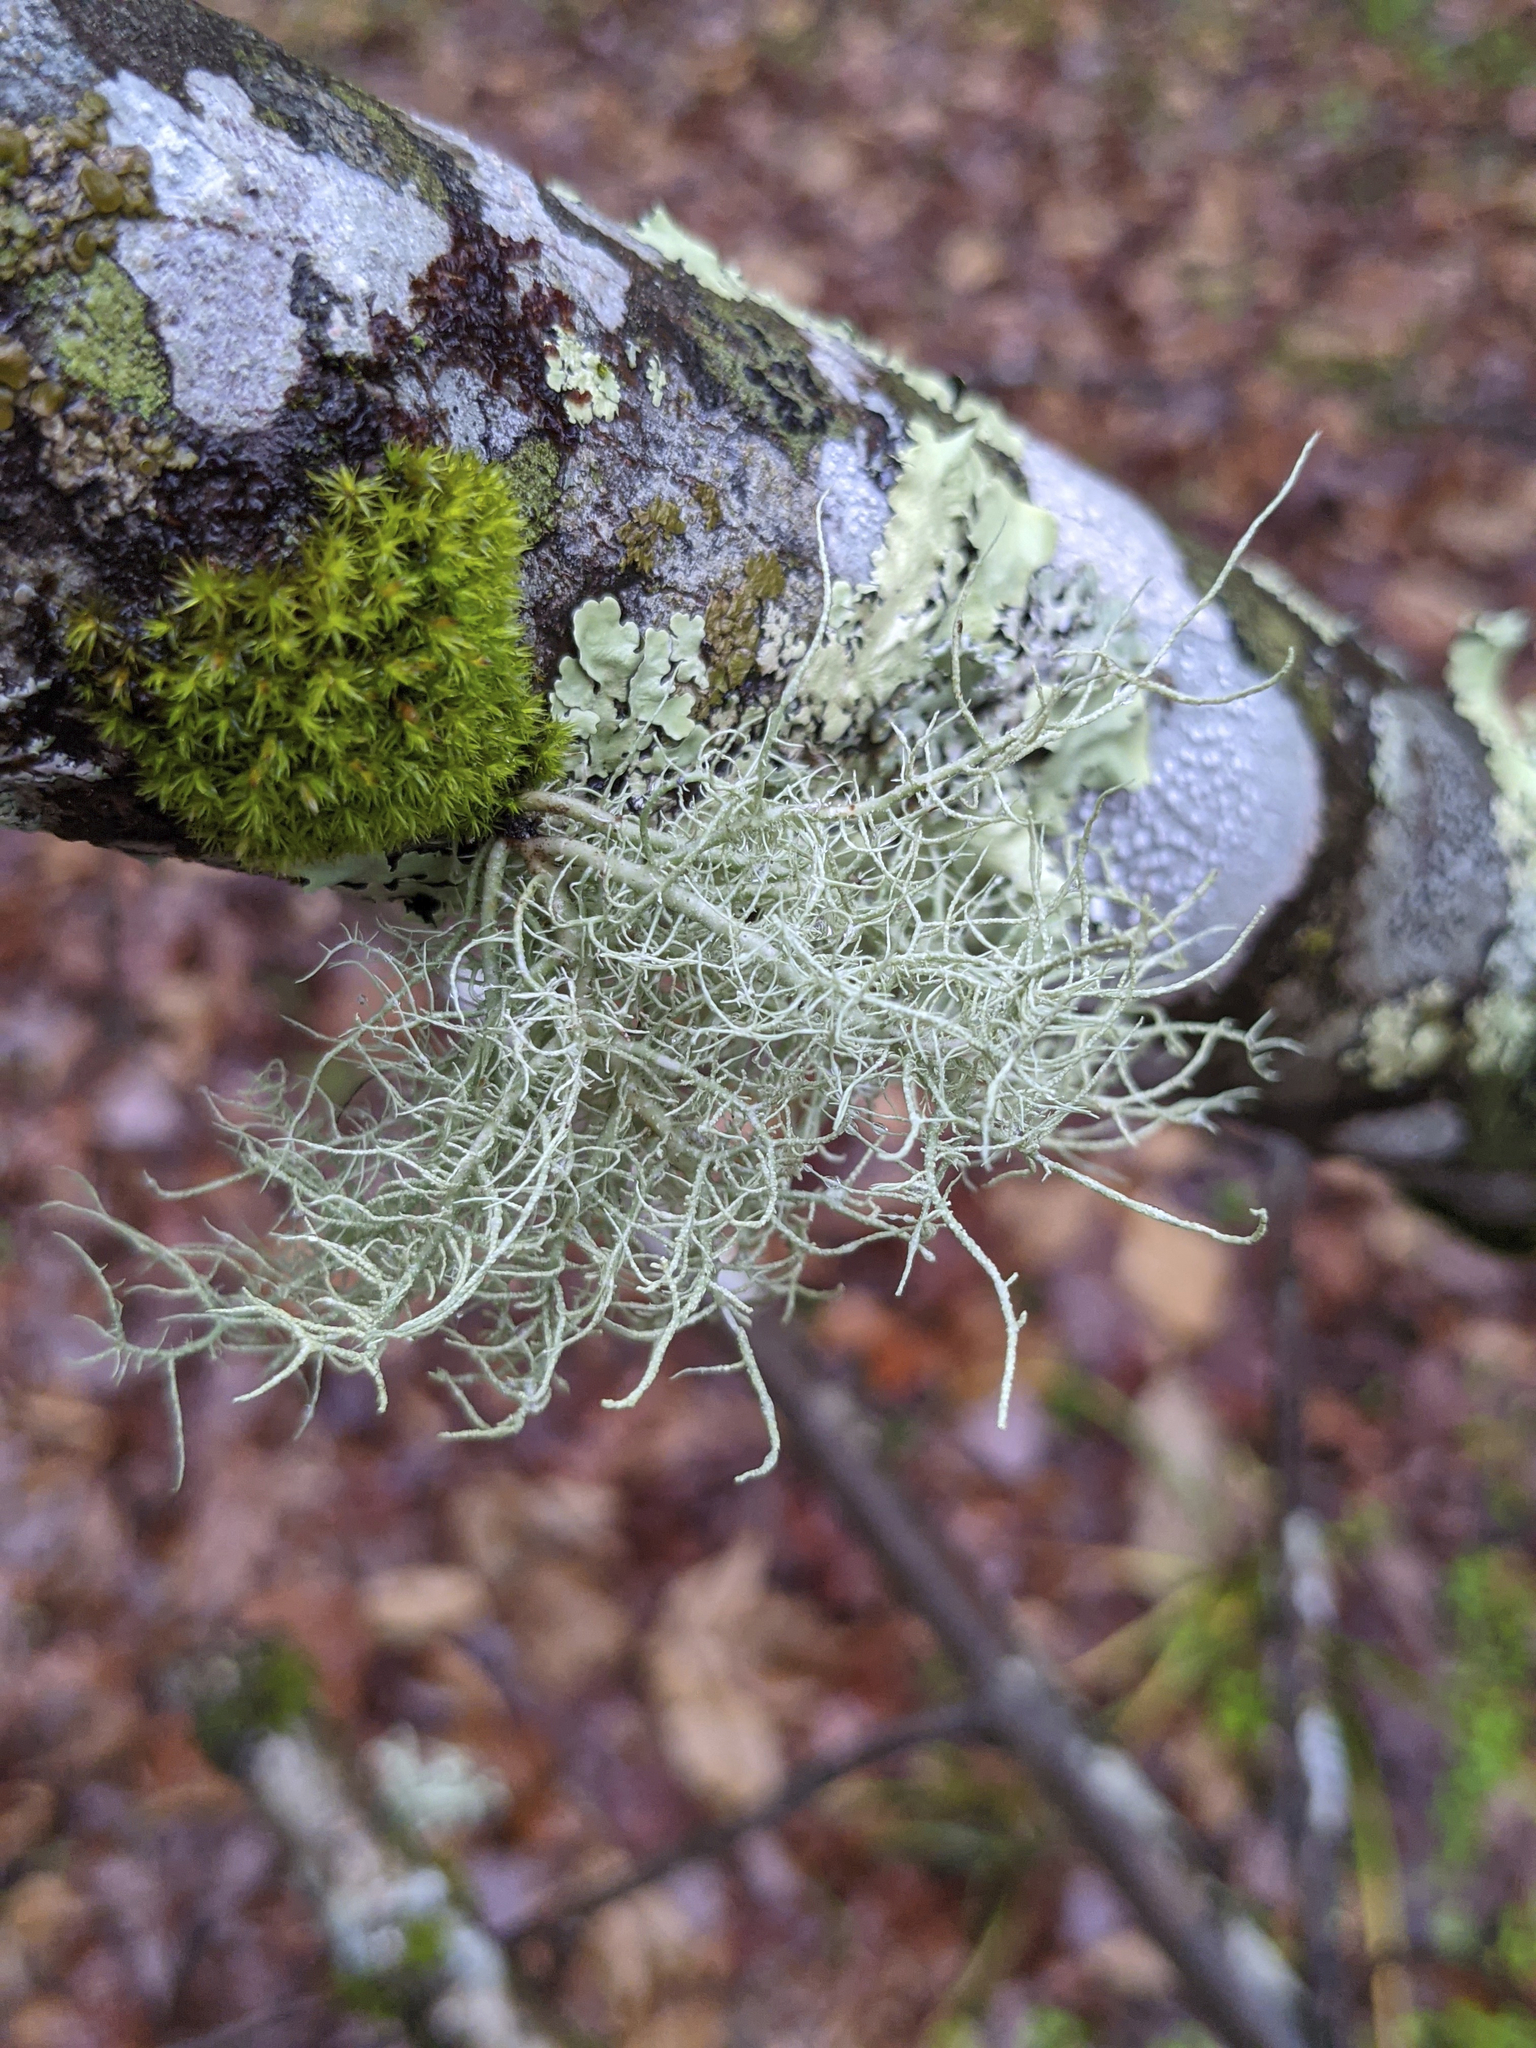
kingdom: Plantae
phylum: Bryophyta
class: Bryopsida
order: Orthotrichales
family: Orthotrichaceae
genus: Ulota
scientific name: Ulota crispa
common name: Crisped pincushion moss
